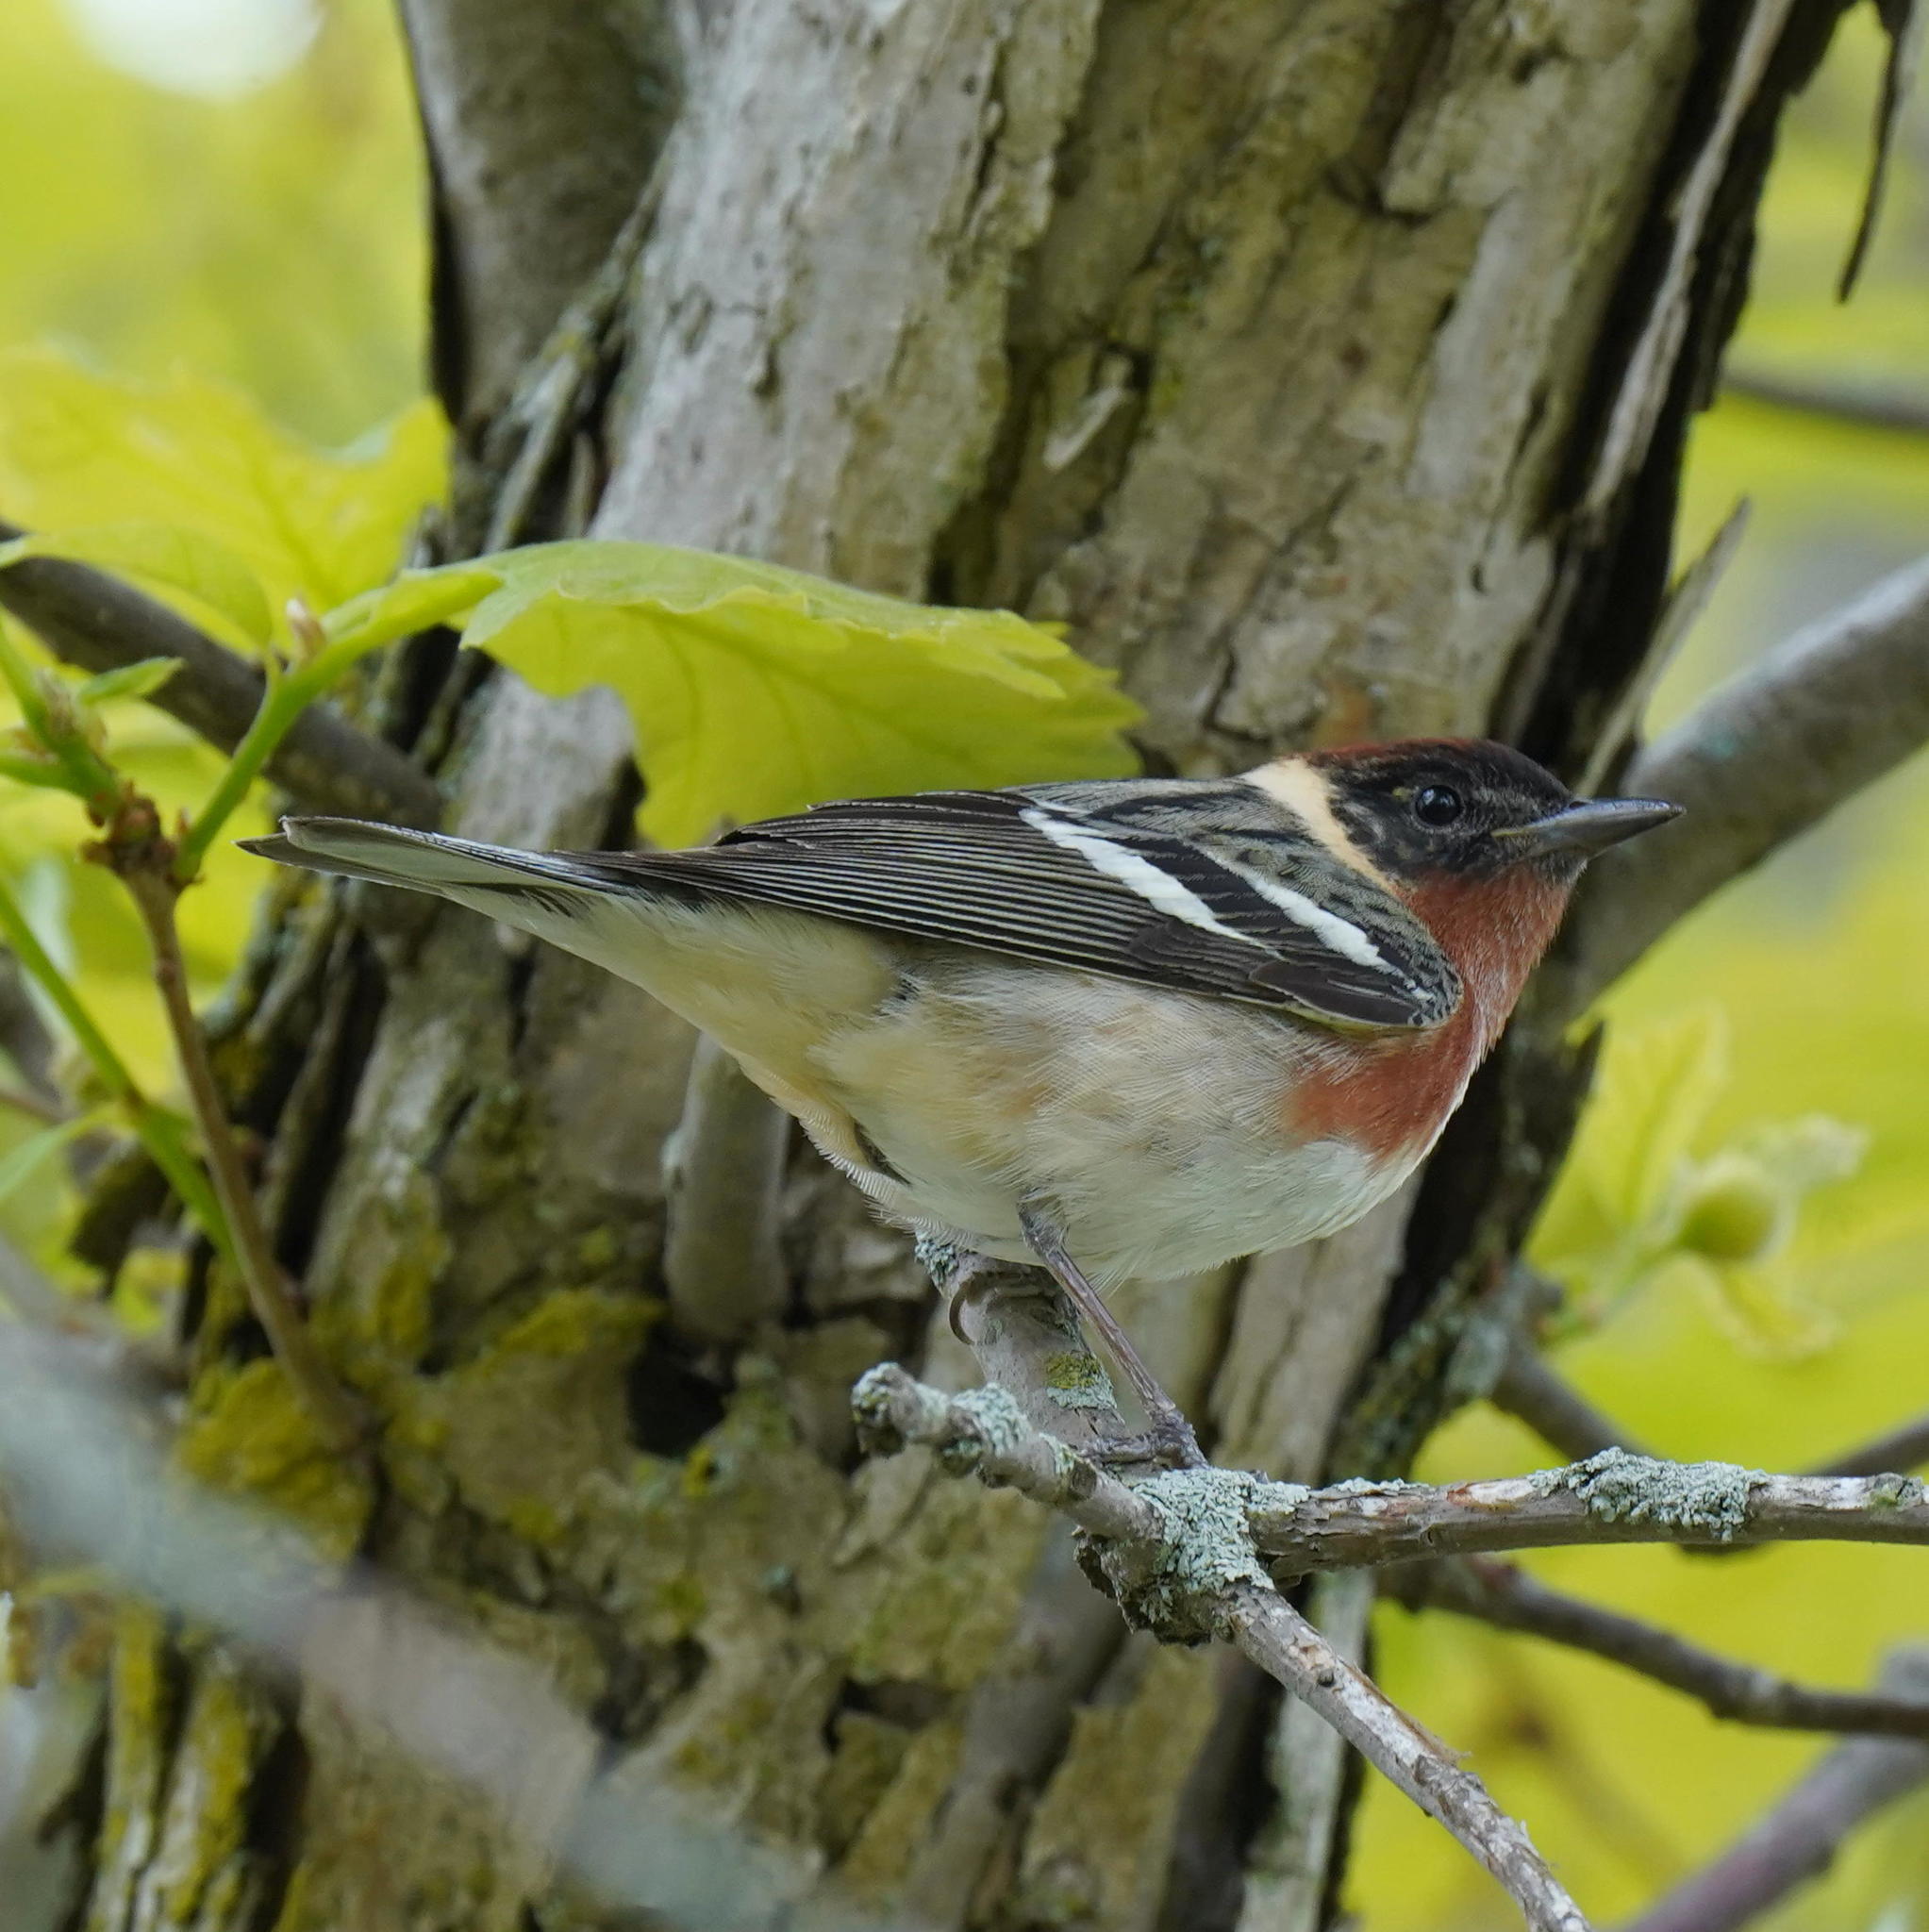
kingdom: Animalia
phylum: Chordata
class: Aves
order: Passeriformes
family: Parulidae
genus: Setophaga
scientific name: Setophaga castanea
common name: Bay-breasted warbler
